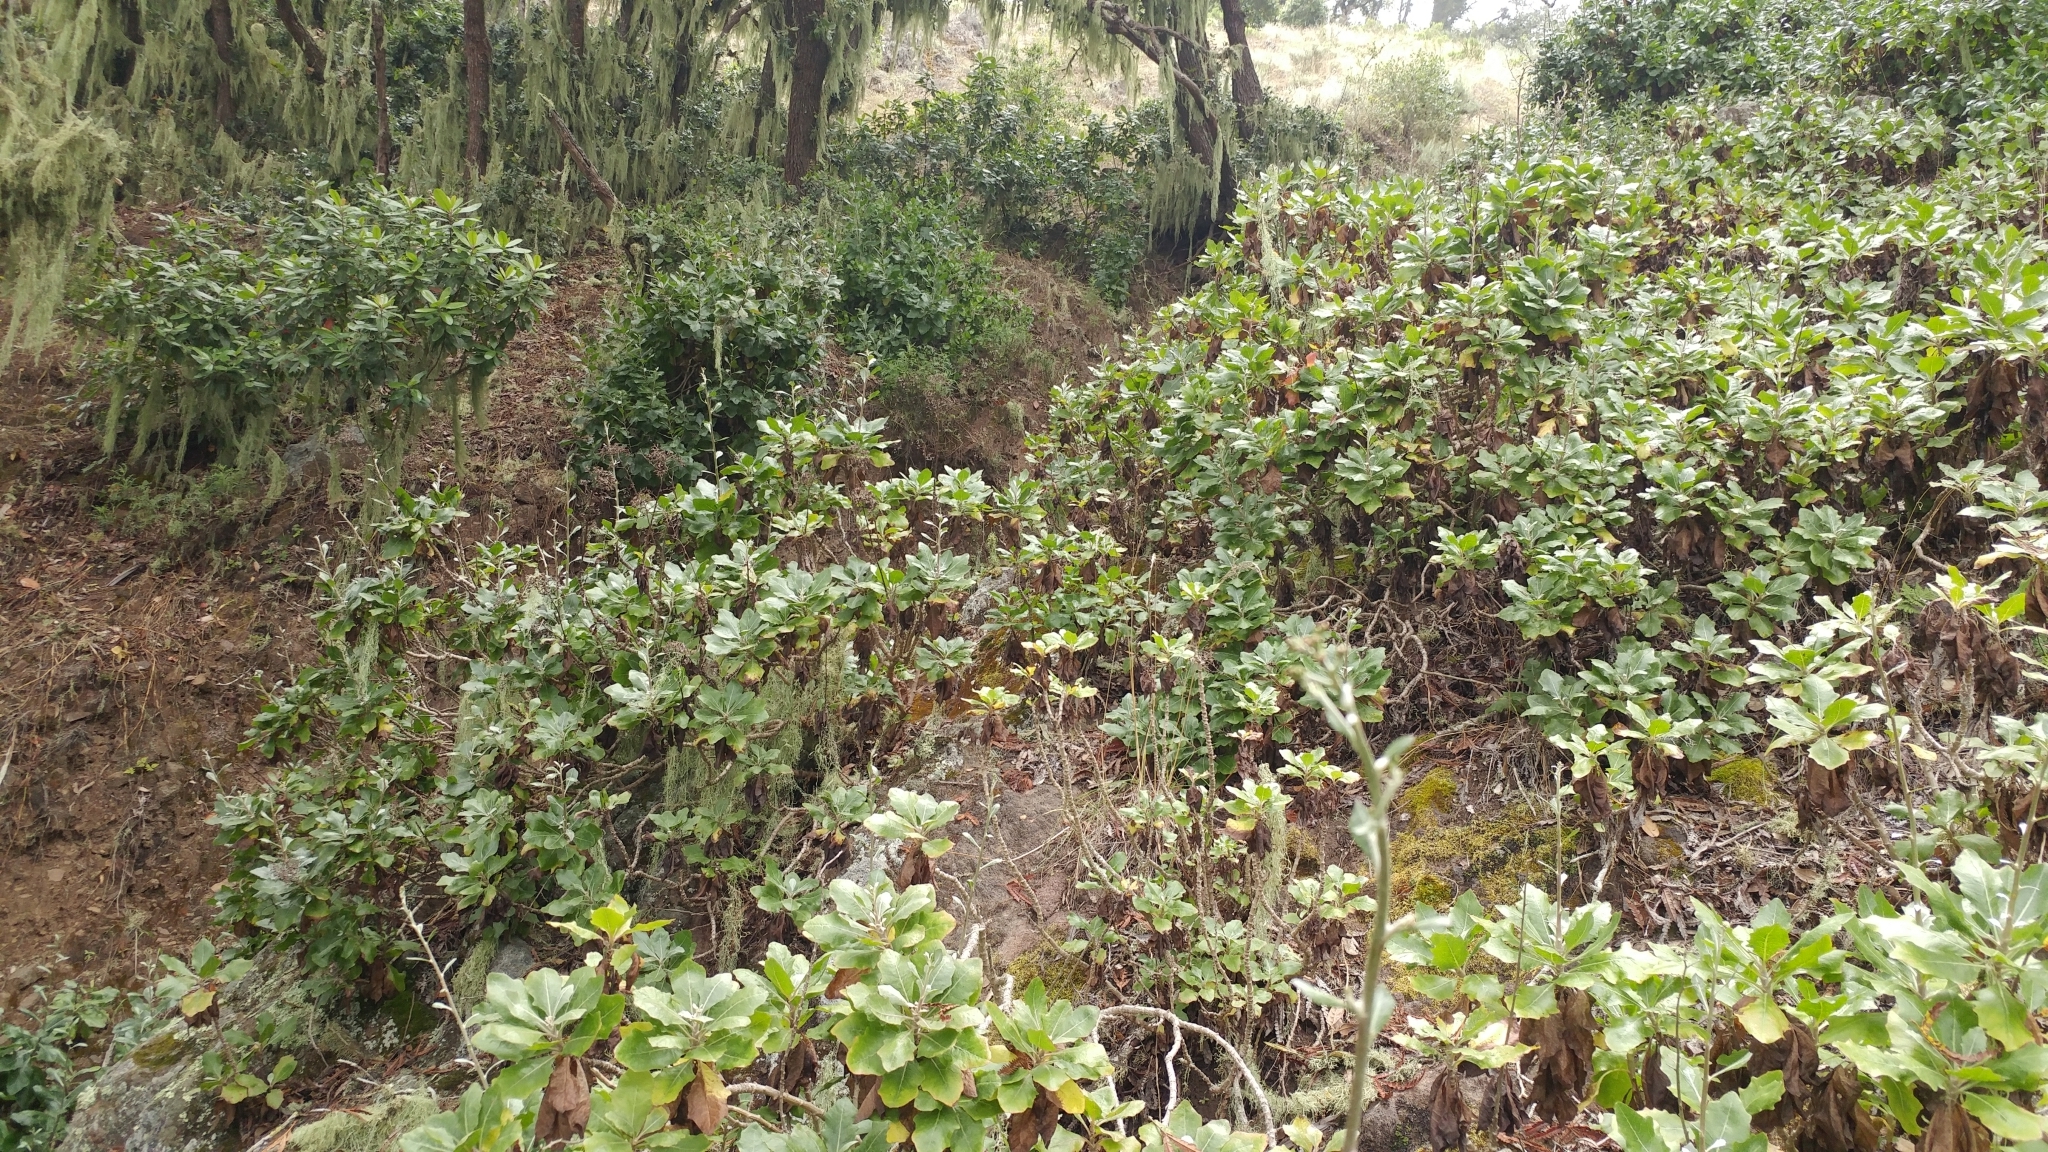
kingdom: Plantae
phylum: Tracheophyta
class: Magnoliopsida
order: Asterales
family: Asteraceae
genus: Munzothamnus
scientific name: Munzothamnus blairii
